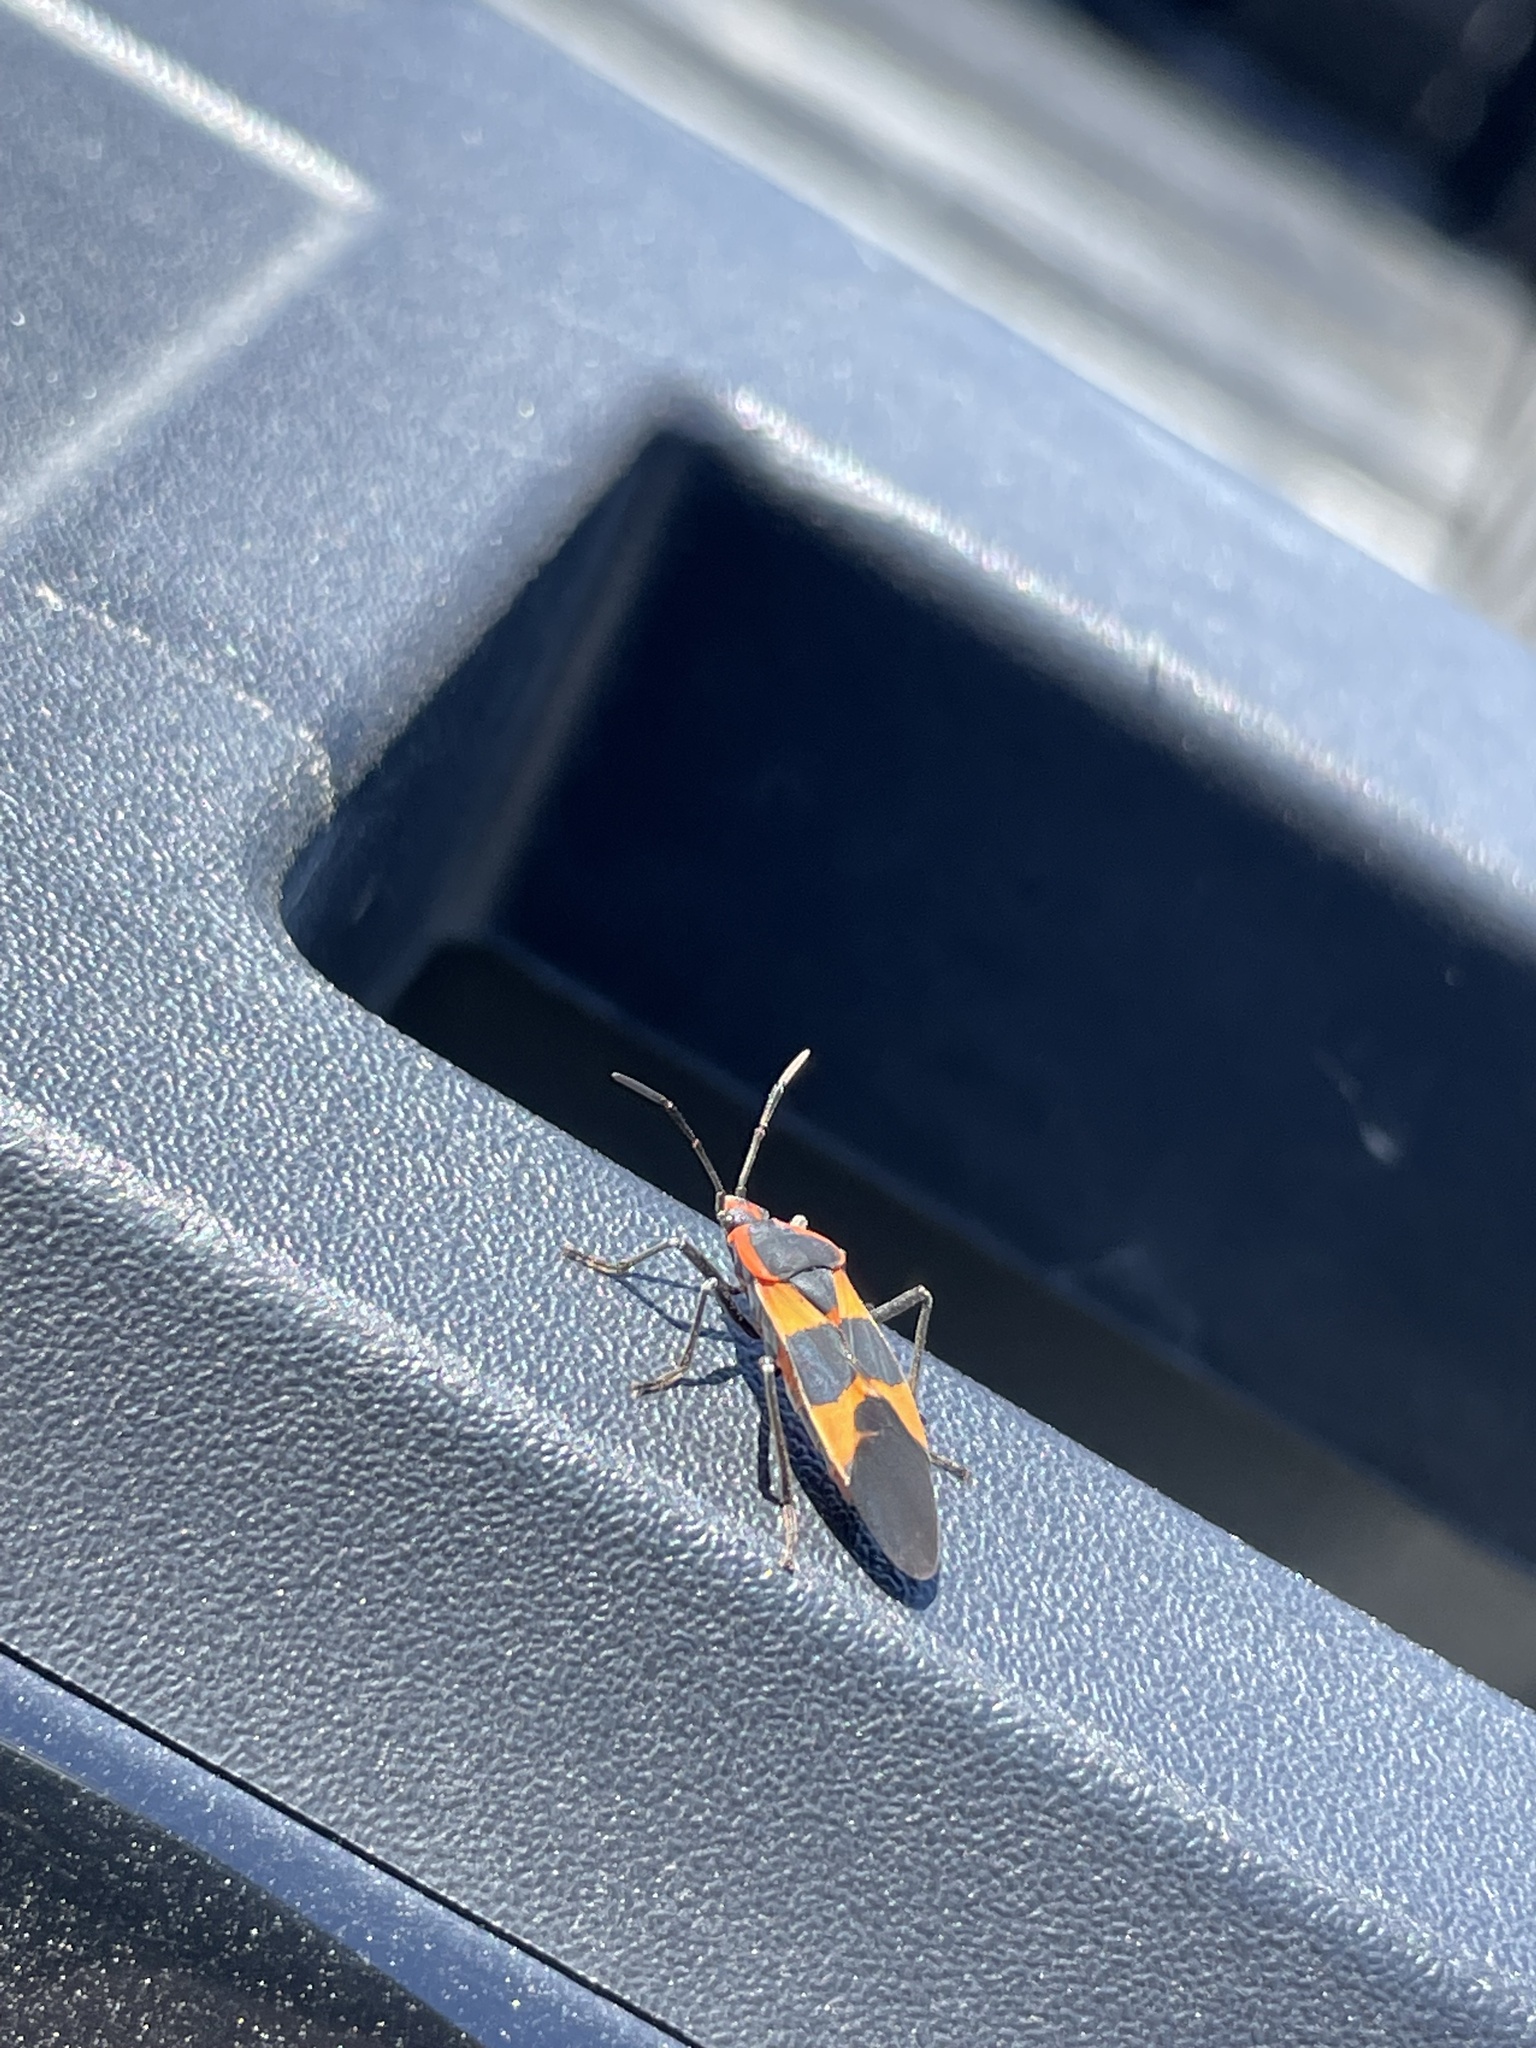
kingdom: Animalia
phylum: Arthropoda
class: Insecta
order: Hemiptera
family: Lygaeidae
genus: Oncopeltus
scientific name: Oncopeltus fasciatus
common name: Large milkweed bug
